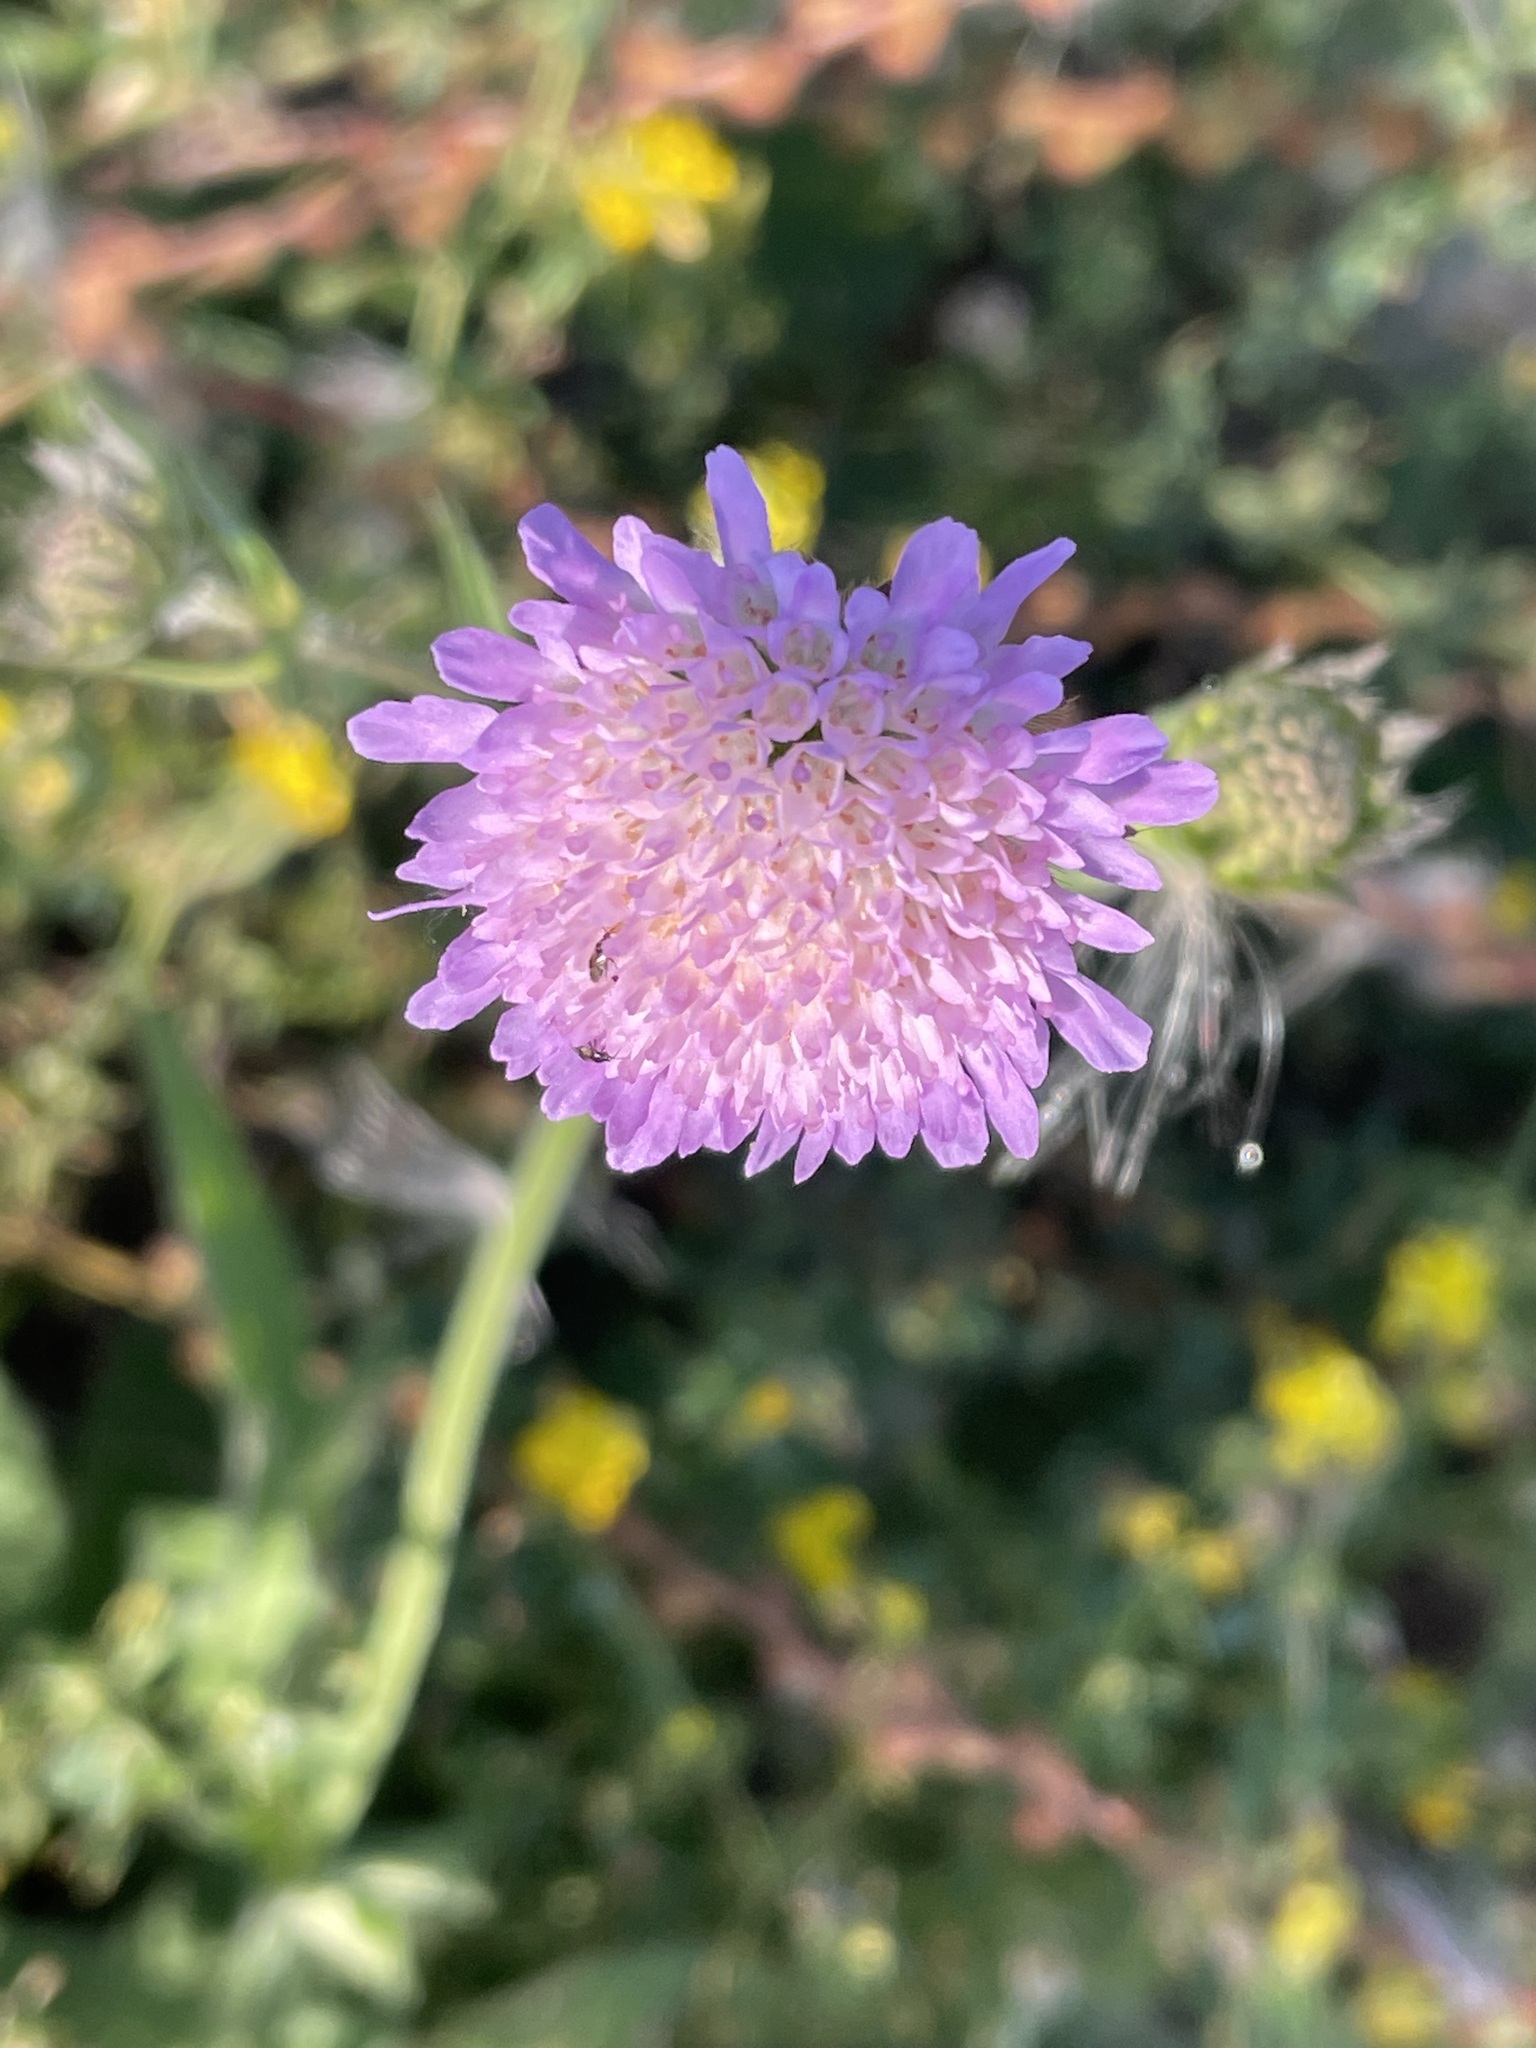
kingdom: Plantae
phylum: Tracheophyta
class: Magnoliopsida
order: Dipsacales
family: Caprifoliaceae
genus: Knautia
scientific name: Knautia arvensis
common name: Field scabiosa
